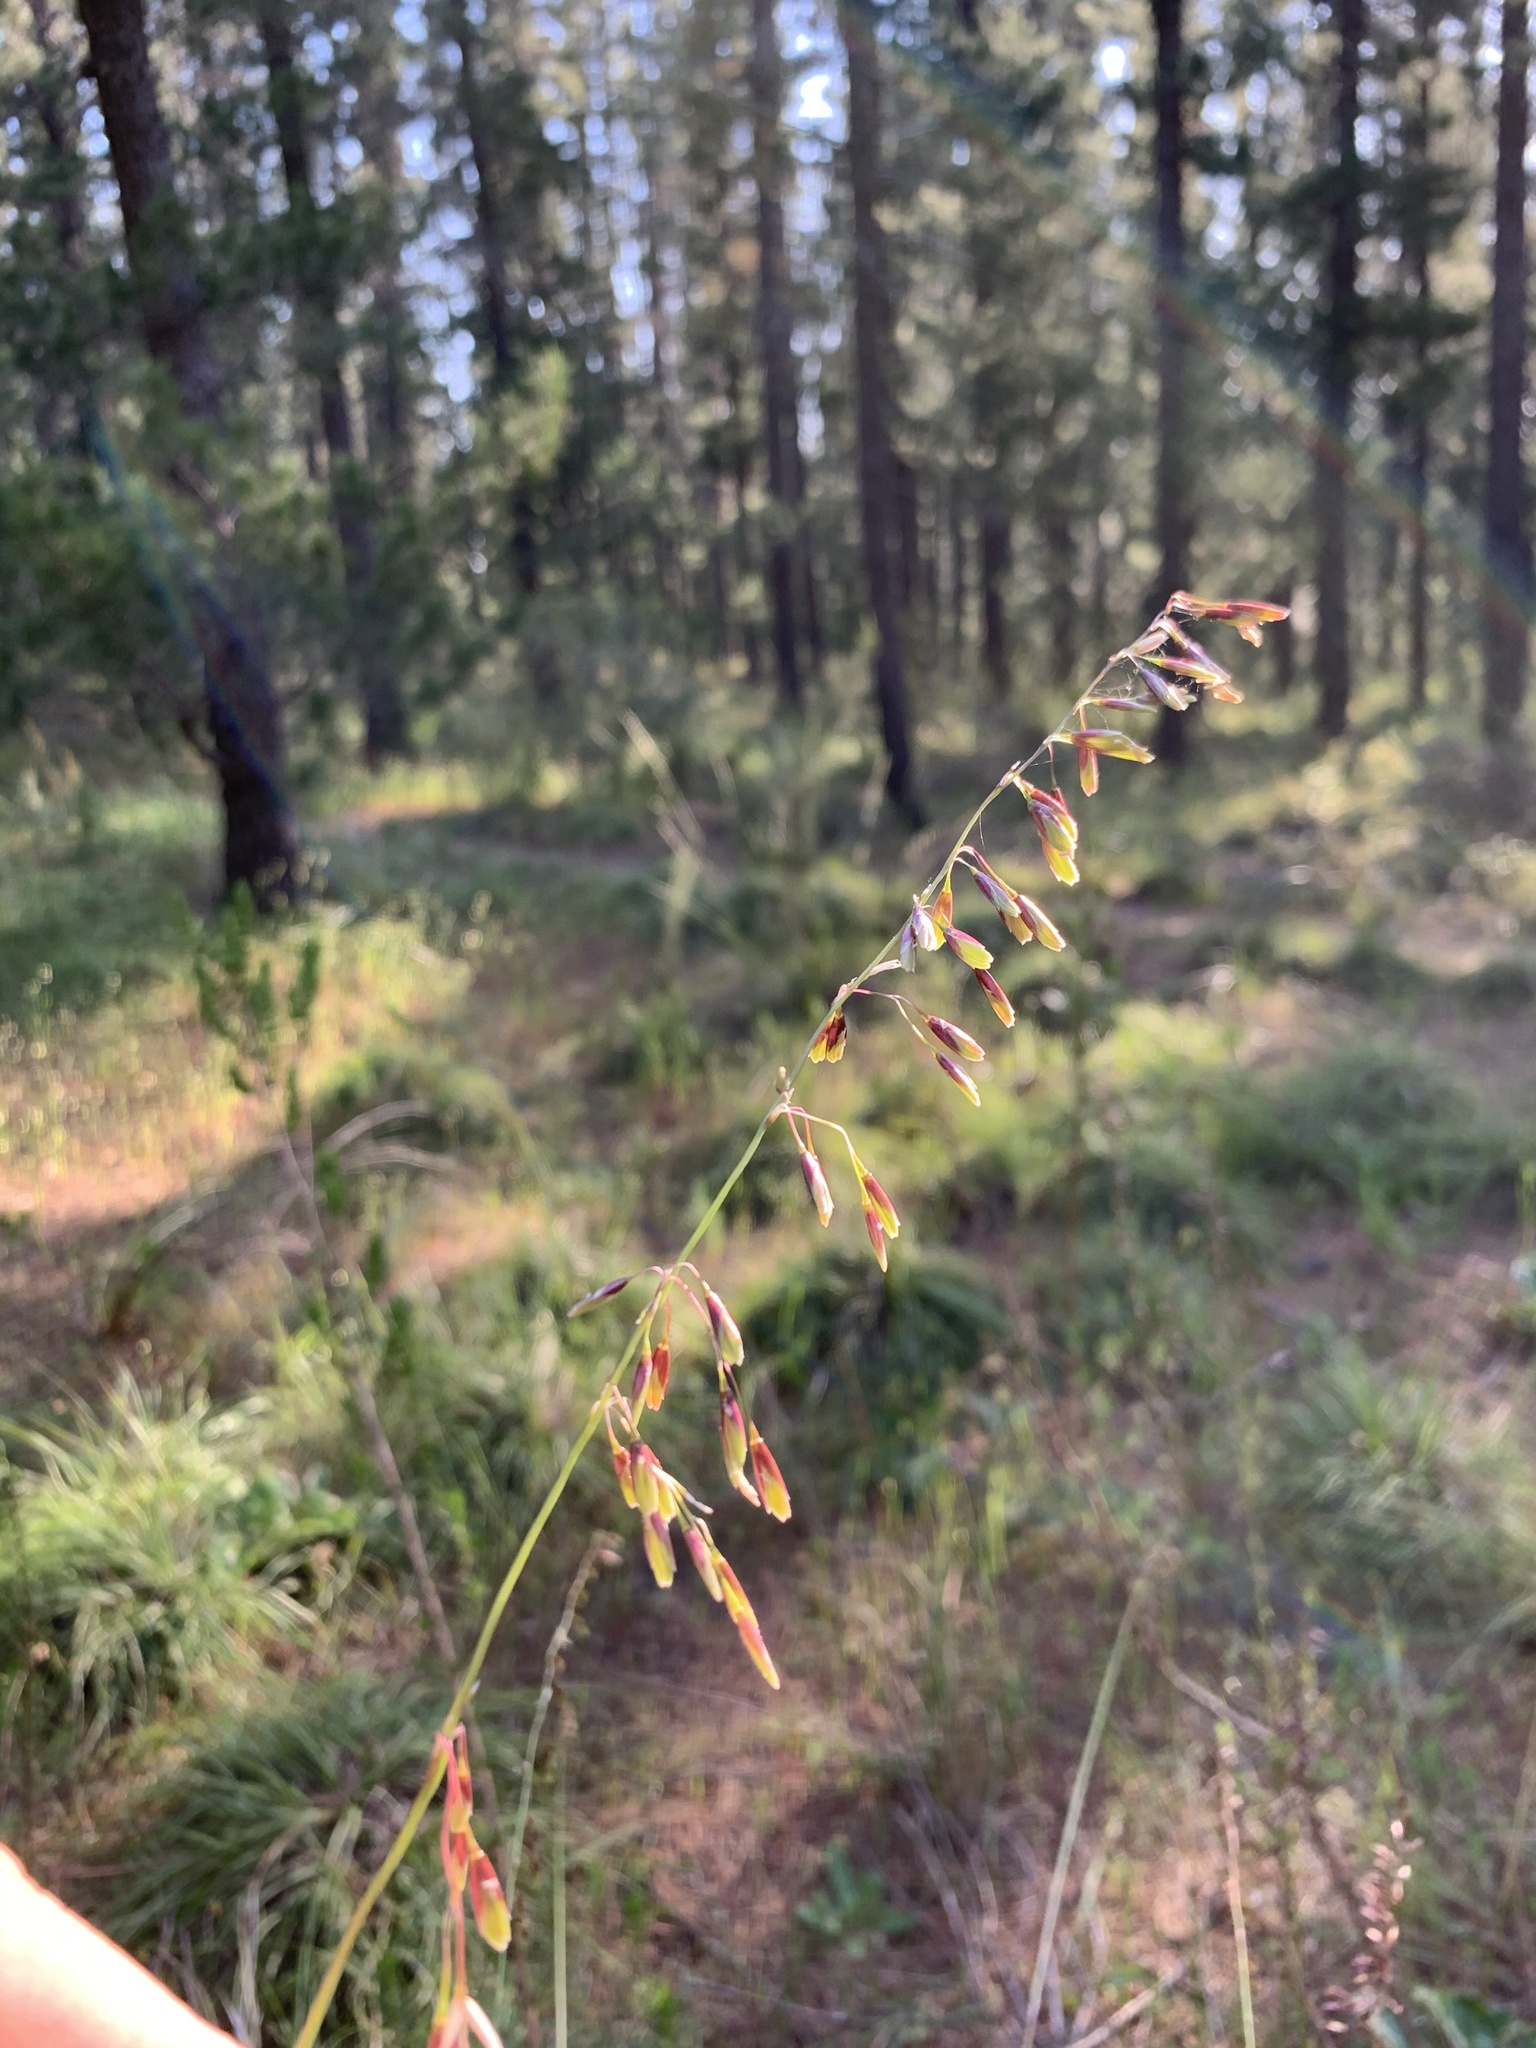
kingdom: Plantae
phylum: Tracheophyta
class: Liliopsida
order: Poales
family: Poaceae
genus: Ehrharta
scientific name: Ehrharta calycina
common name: Perennial veldtgrass
